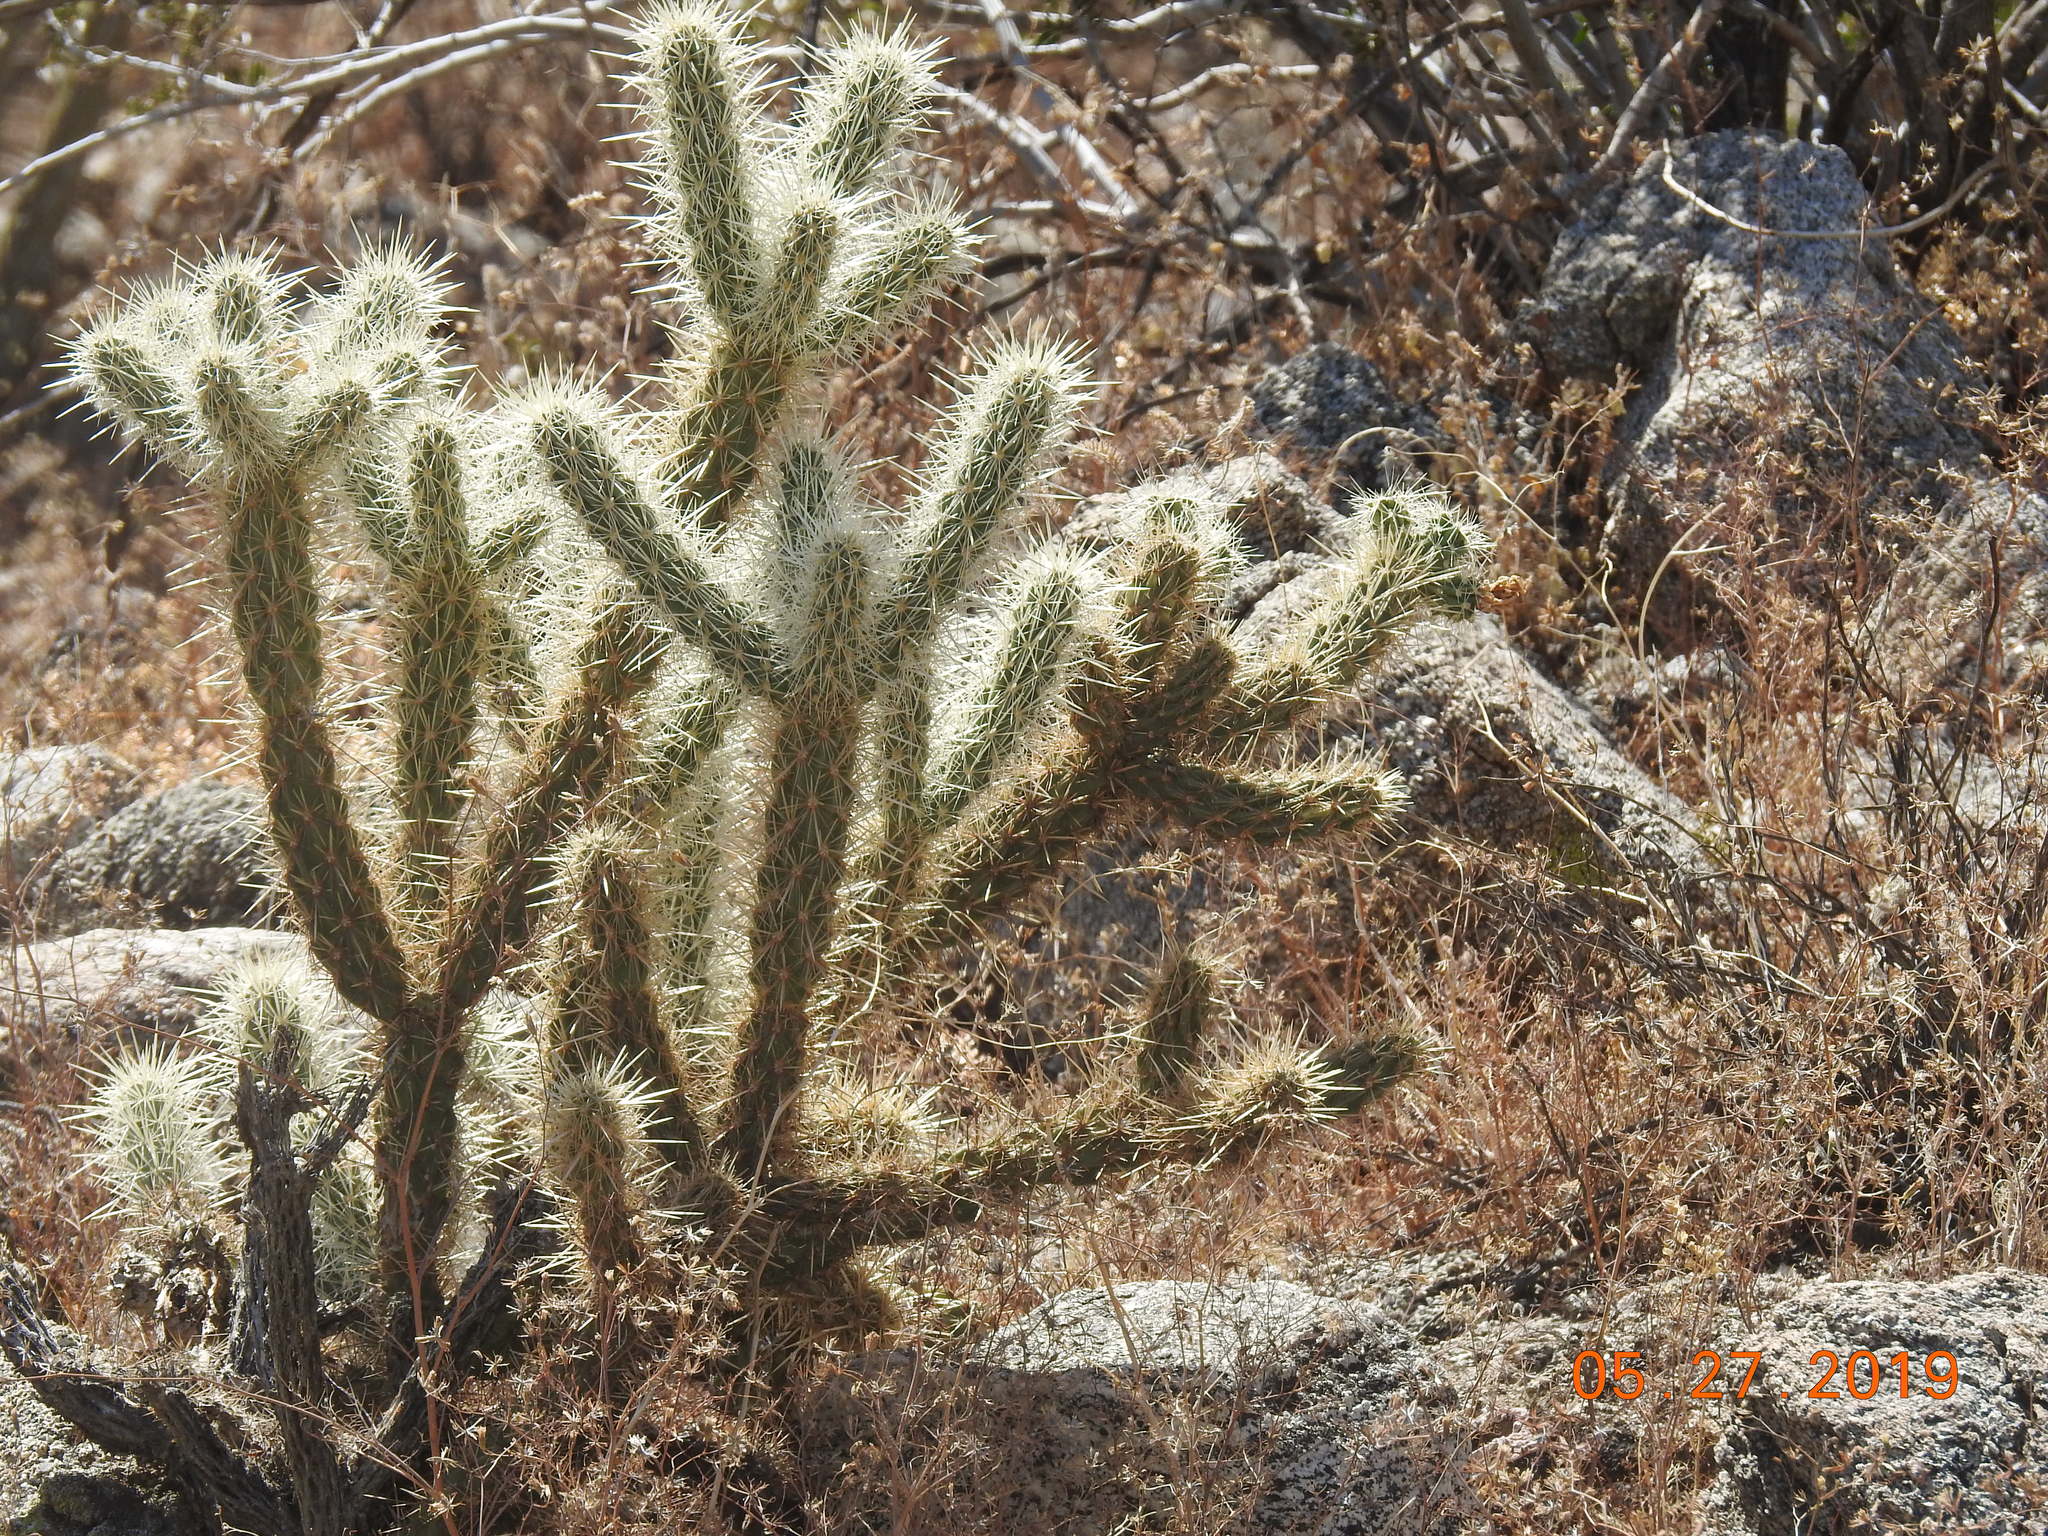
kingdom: Plantae
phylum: Tracheophyta
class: Magnoliopsida
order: Caryophyllales
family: Cactaceae
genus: Cylindropuntia
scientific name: Cylindropuntia echinocarpa
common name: Ground cholla
